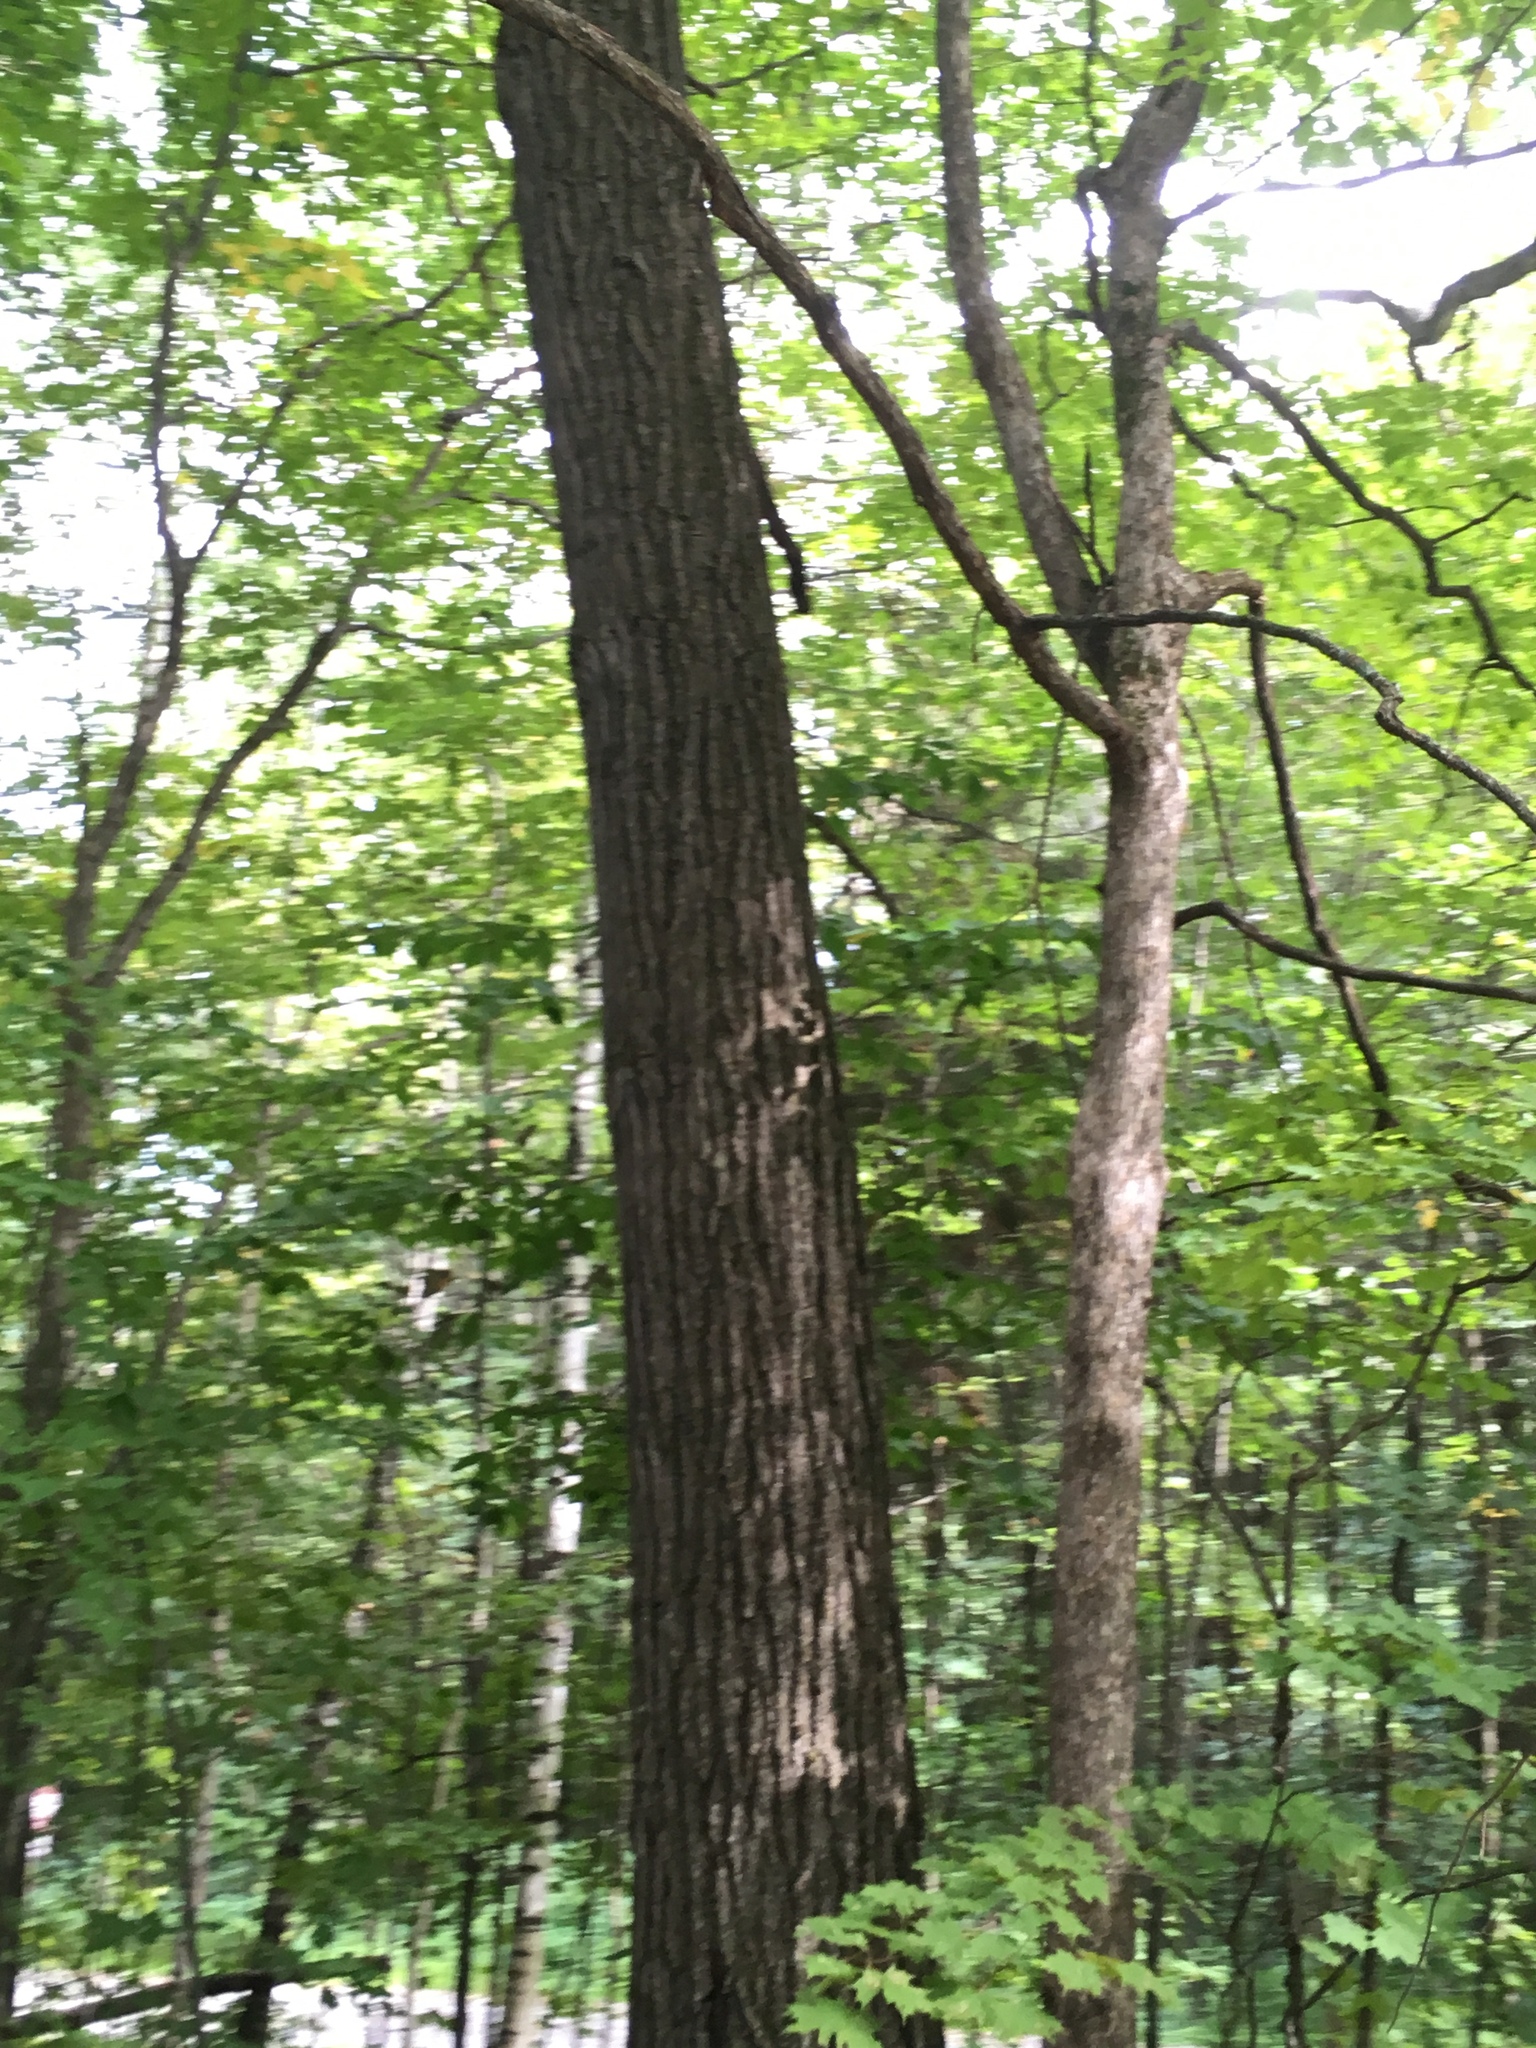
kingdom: Plantae
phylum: Tracheophyta
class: Magnoliopsida
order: Fagales
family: Fagaceae
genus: Quercus
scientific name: Quercus rubra
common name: Red oak
